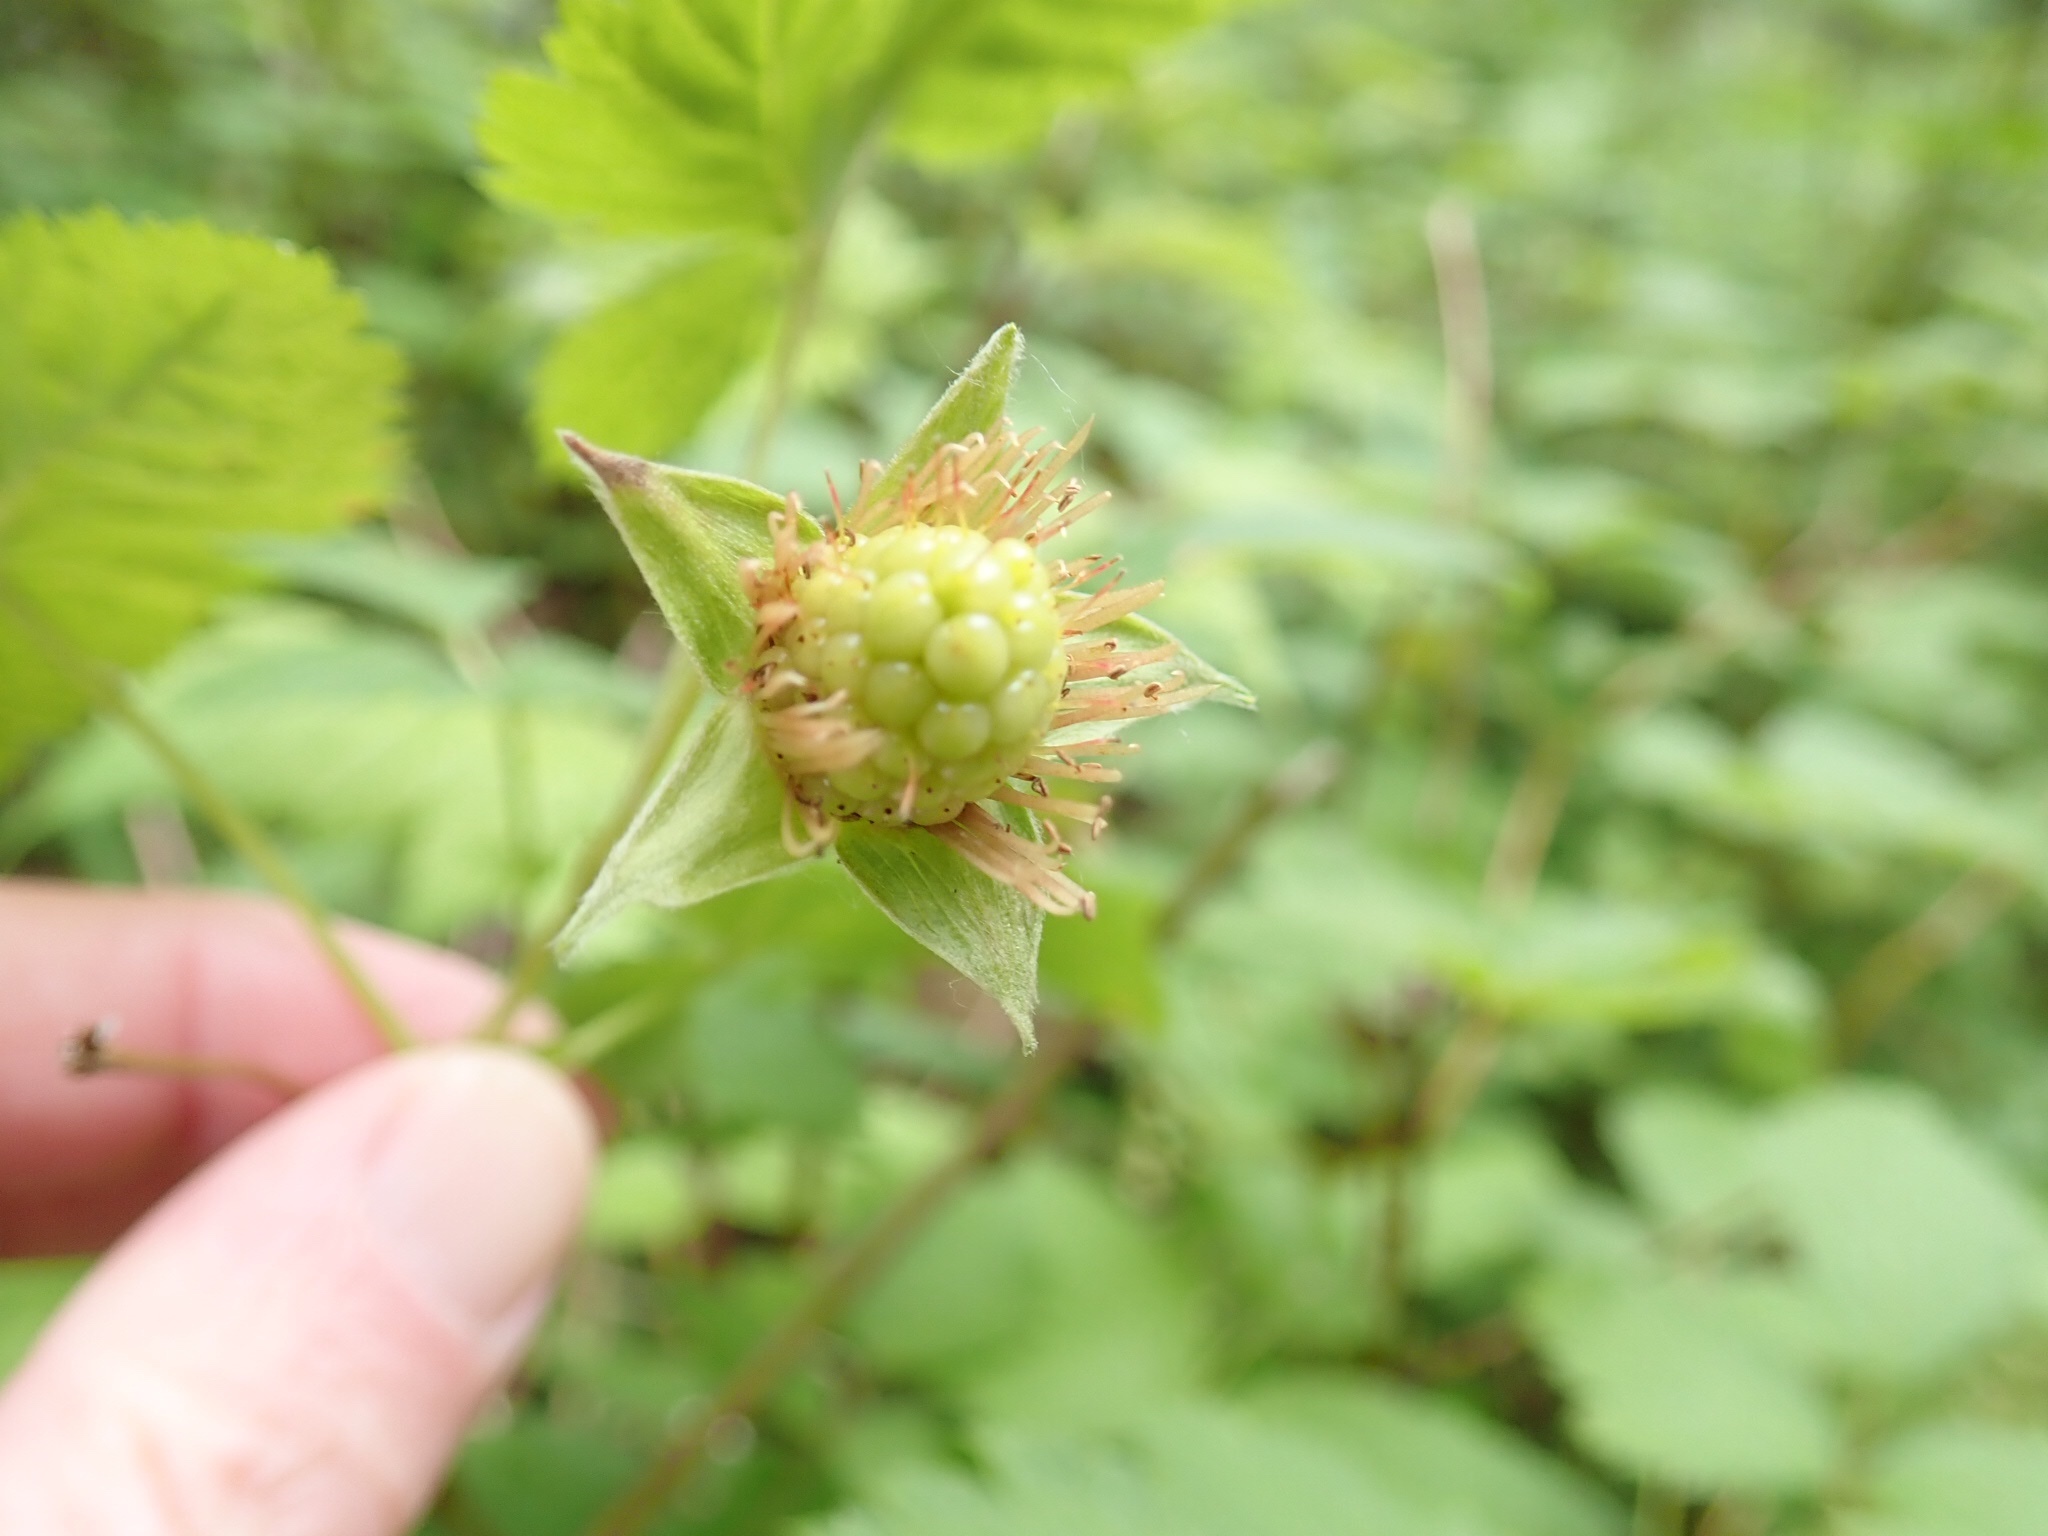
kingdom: Plantae
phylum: Tracheophyta
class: Magnoliopsida
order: Rosales
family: Rosaceae
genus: Rubus
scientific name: Rubus spectabilis
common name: Salmonberry
